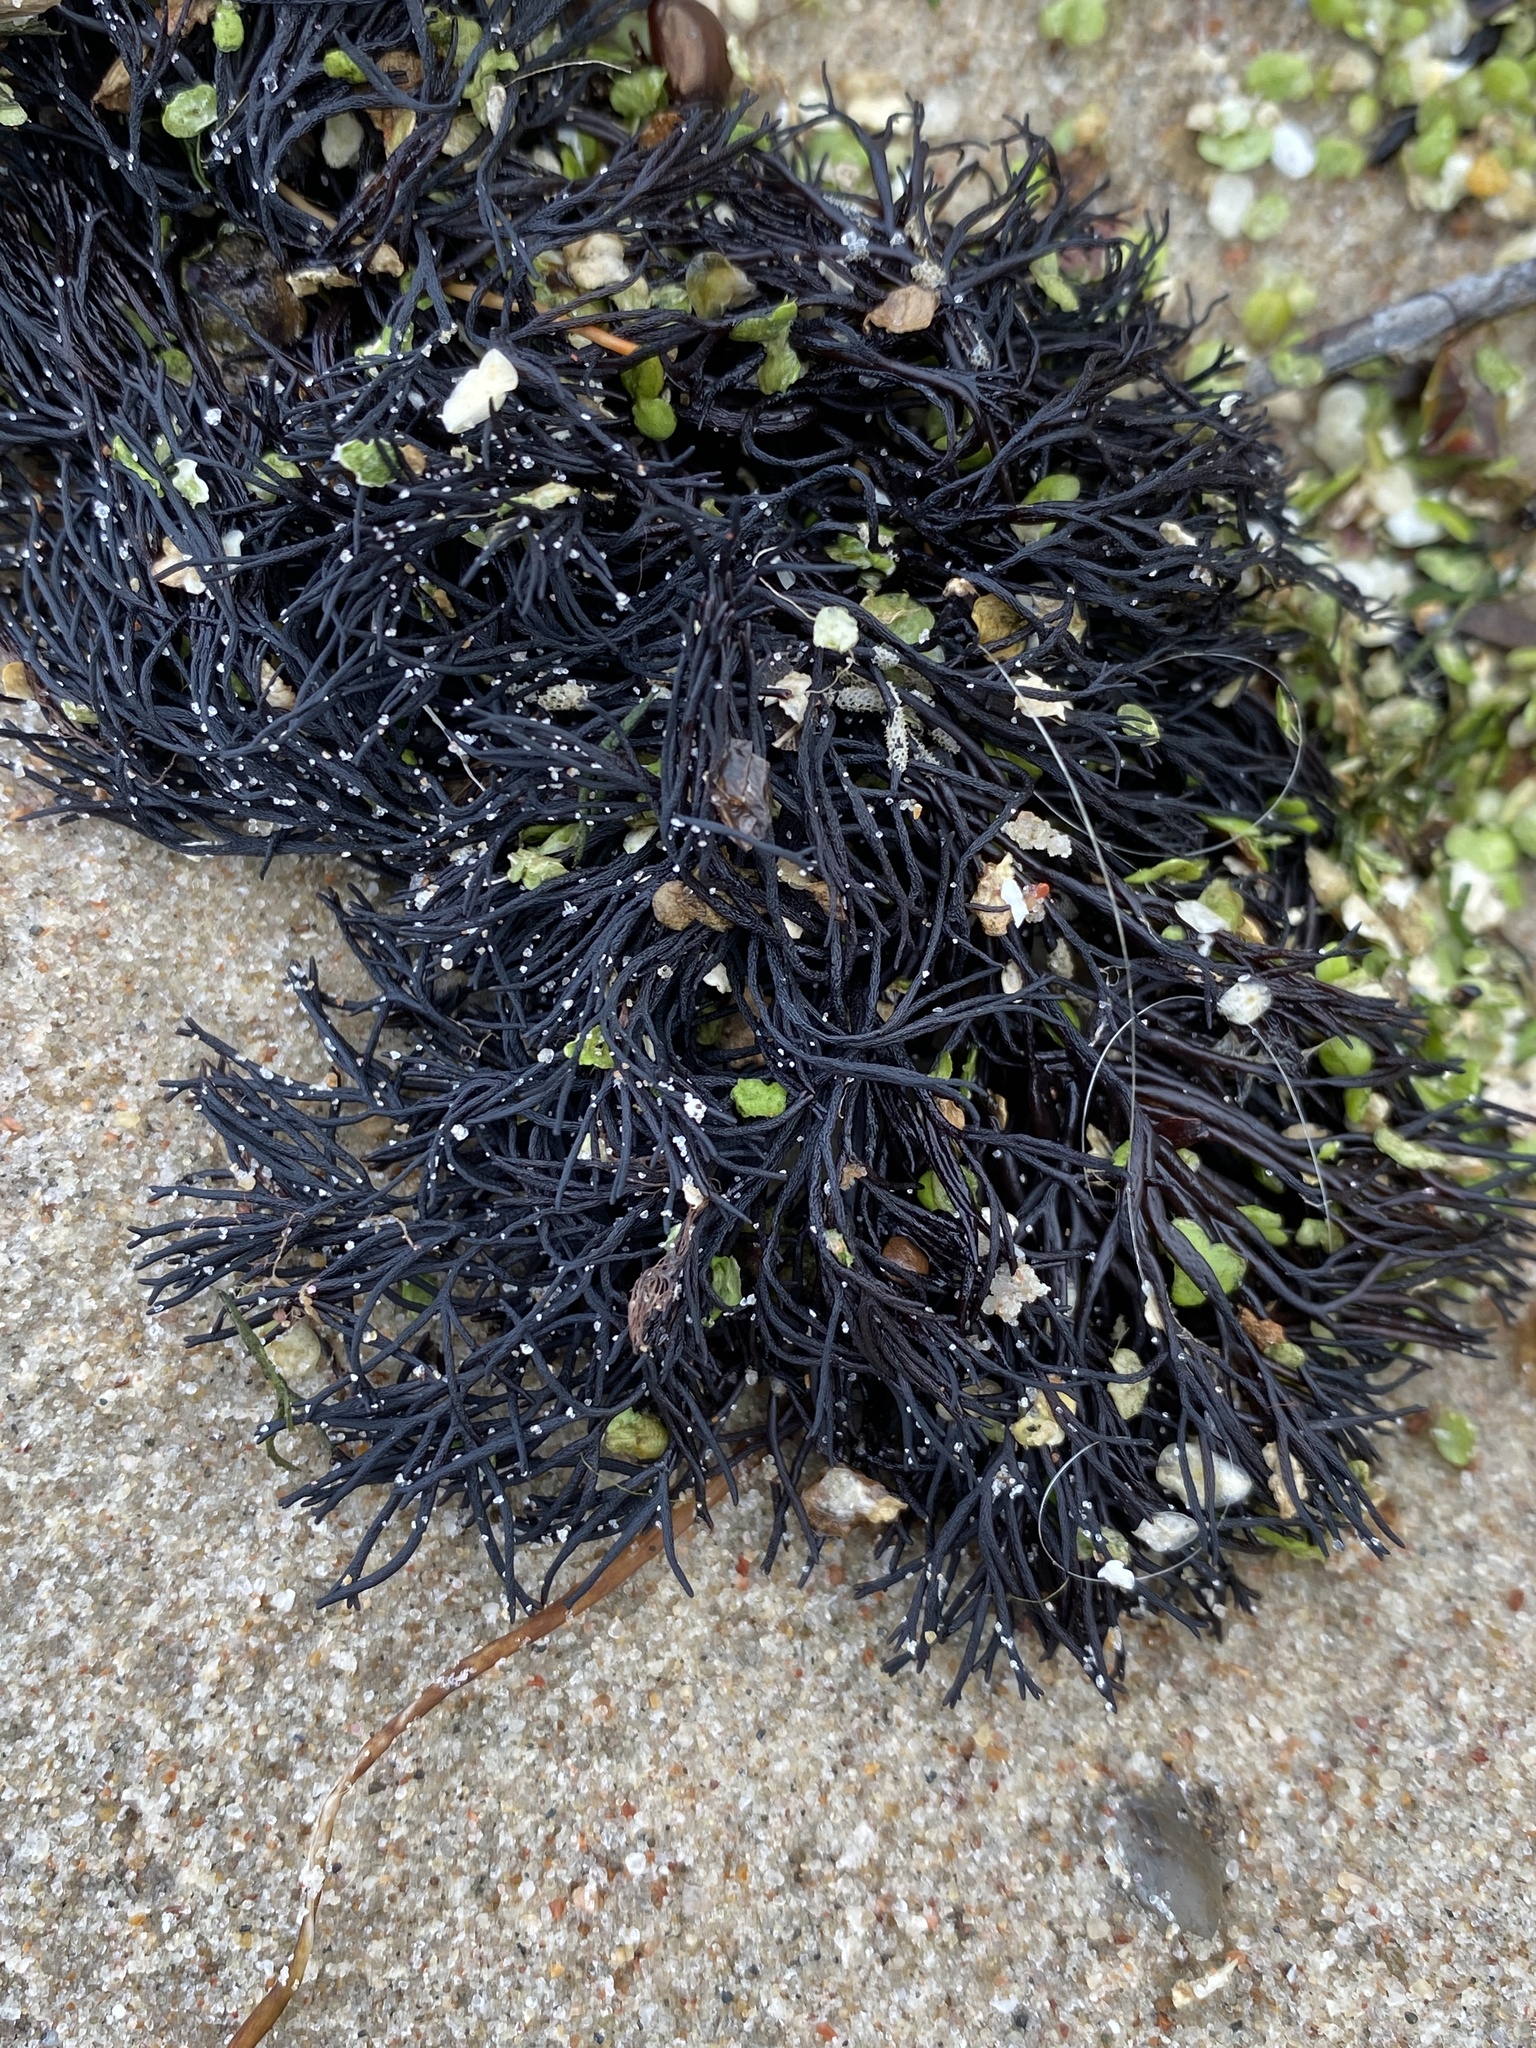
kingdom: Plantae
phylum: Rhodophyta
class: Florideophyceae
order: Gigartinales
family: Furcellariaceae
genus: Furcellaria
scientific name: Furcellaria lumbricalis
